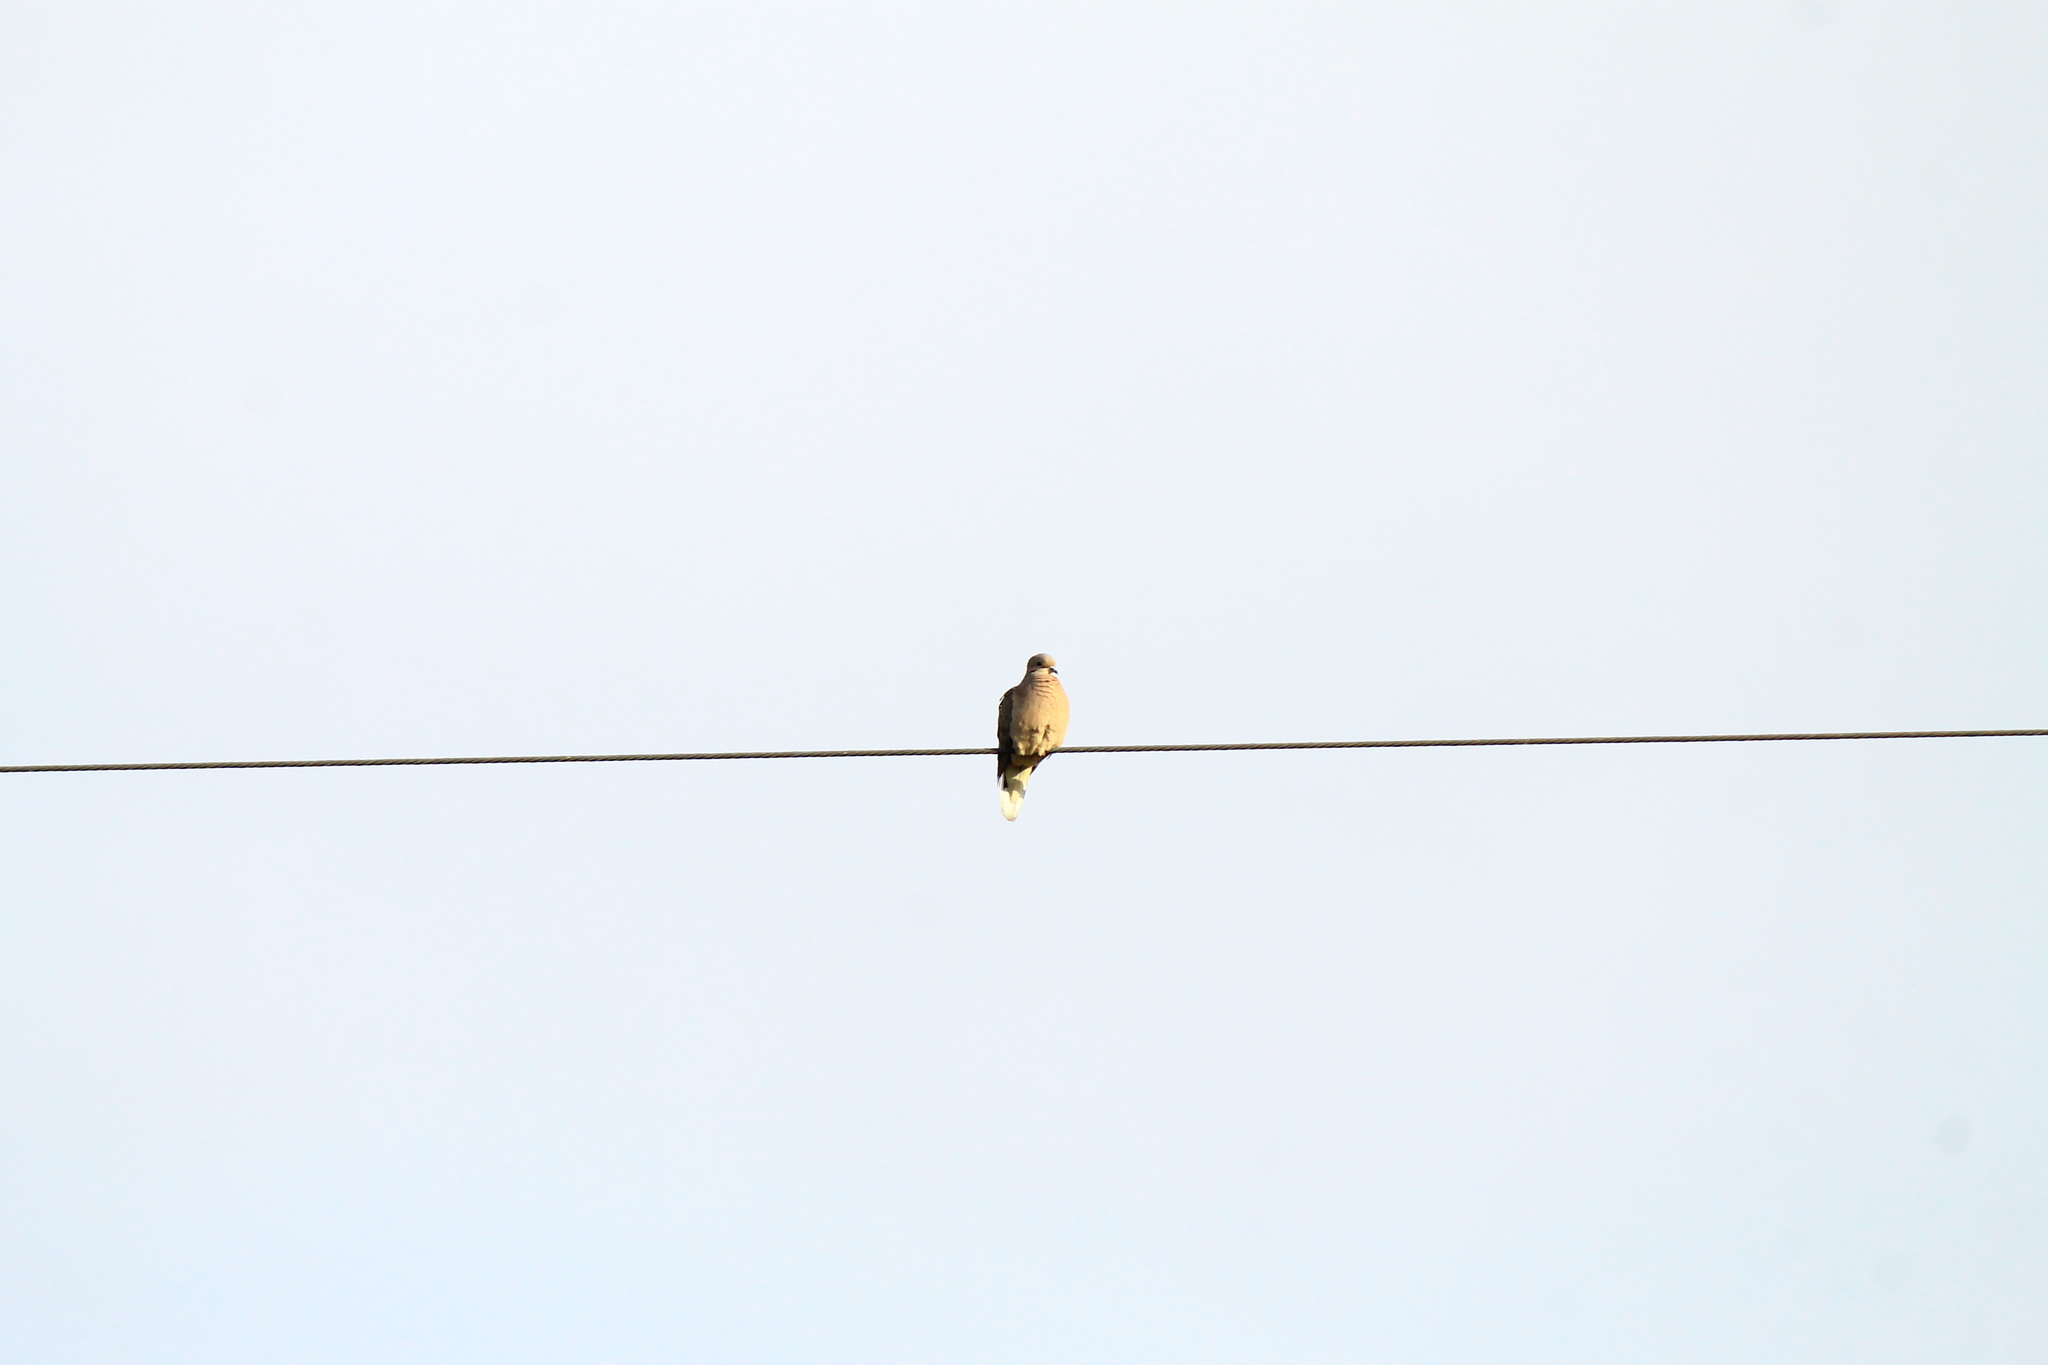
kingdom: Animalia
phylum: Chordata
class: Aves
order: Columbiformes
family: Columbidae
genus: Zenaida
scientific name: Zenaida auriculata
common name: Eared dove
